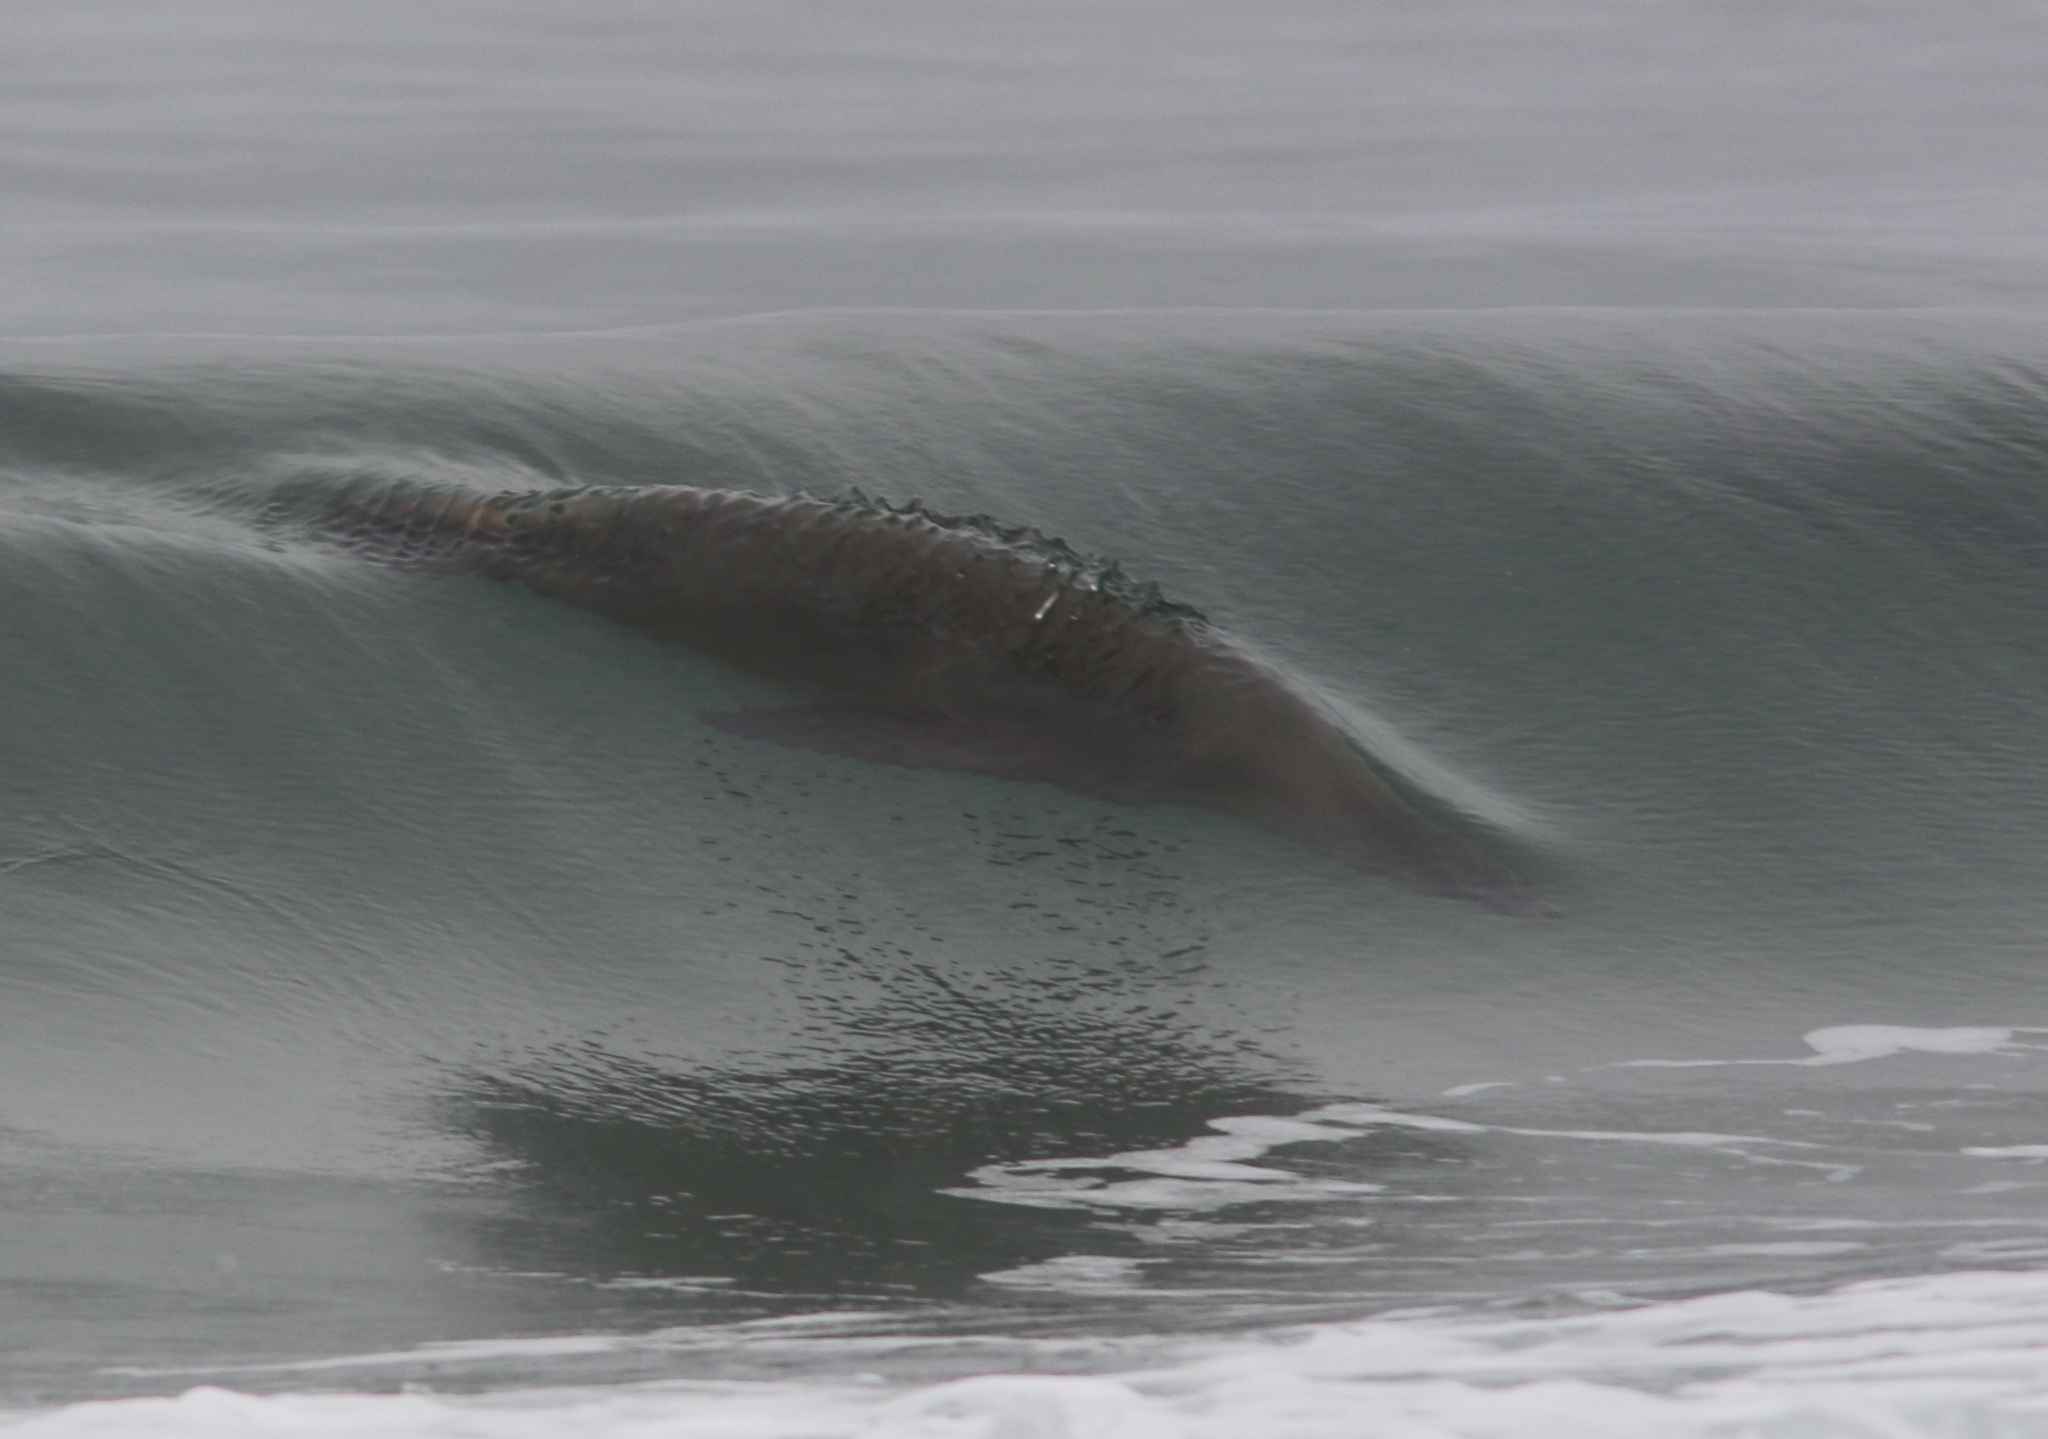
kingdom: Animalia
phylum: Chordata
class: Mammalia
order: Carnivora
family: Otariidae
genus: Zalophus
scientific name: Zalophus californianus
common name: California sea lion
